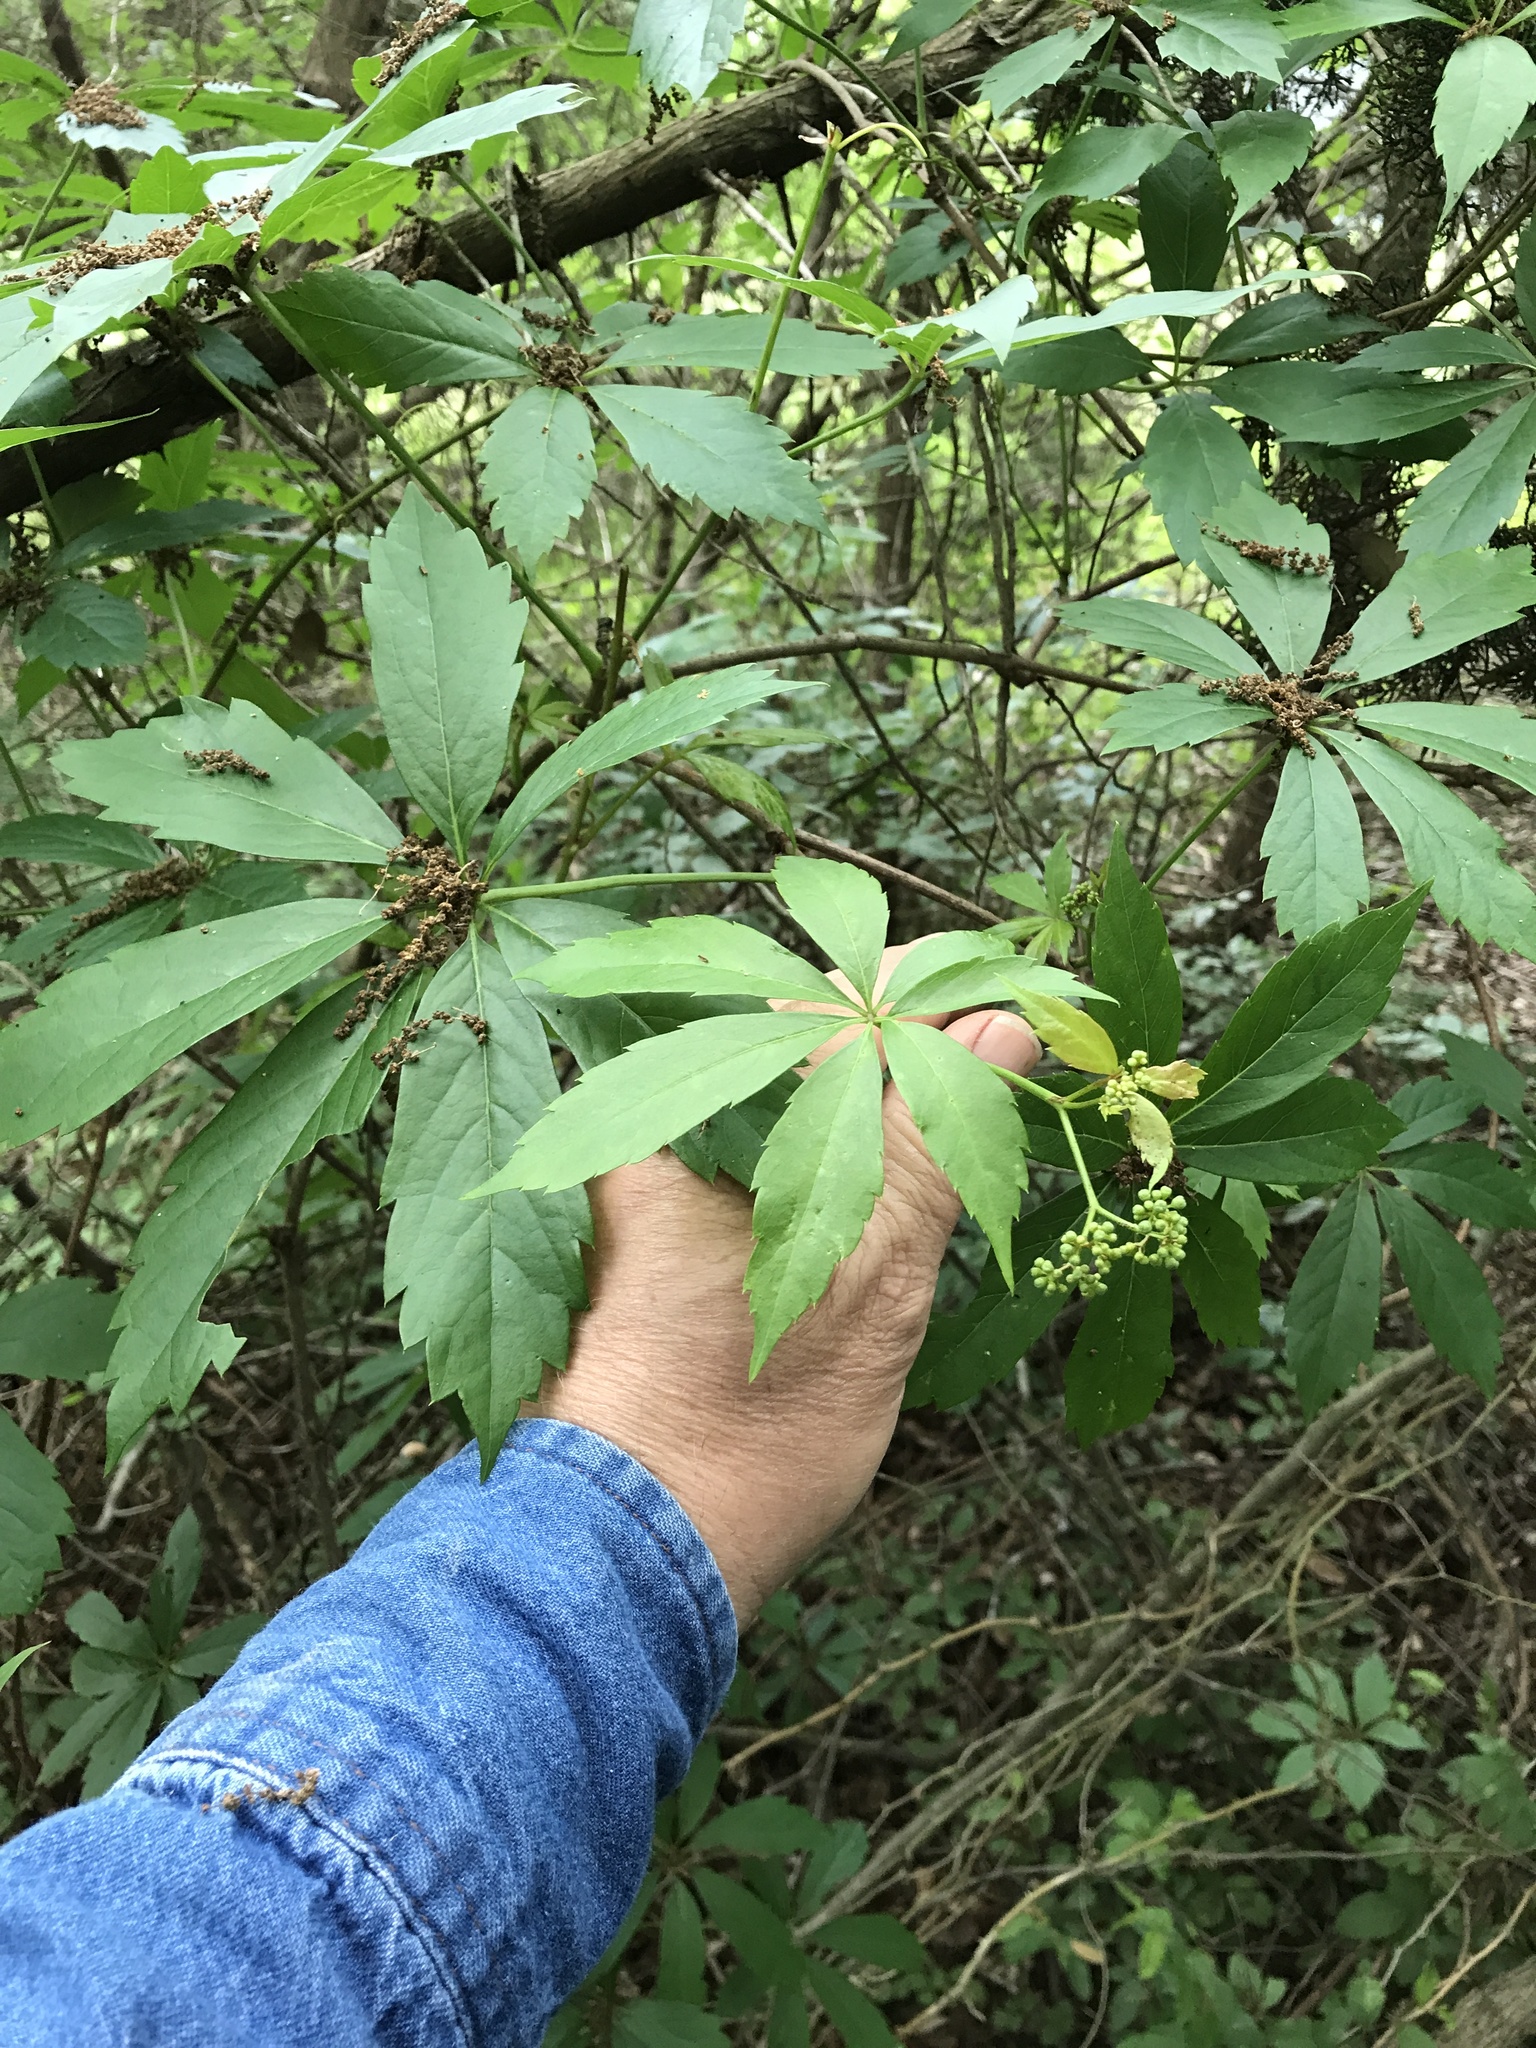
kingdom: Plantae
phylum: Tracheophyta
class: Magnoliopsida
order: Vitales
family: Vitaceae
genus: Parthenocissus
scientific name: Parthenocissus heptaphylla
